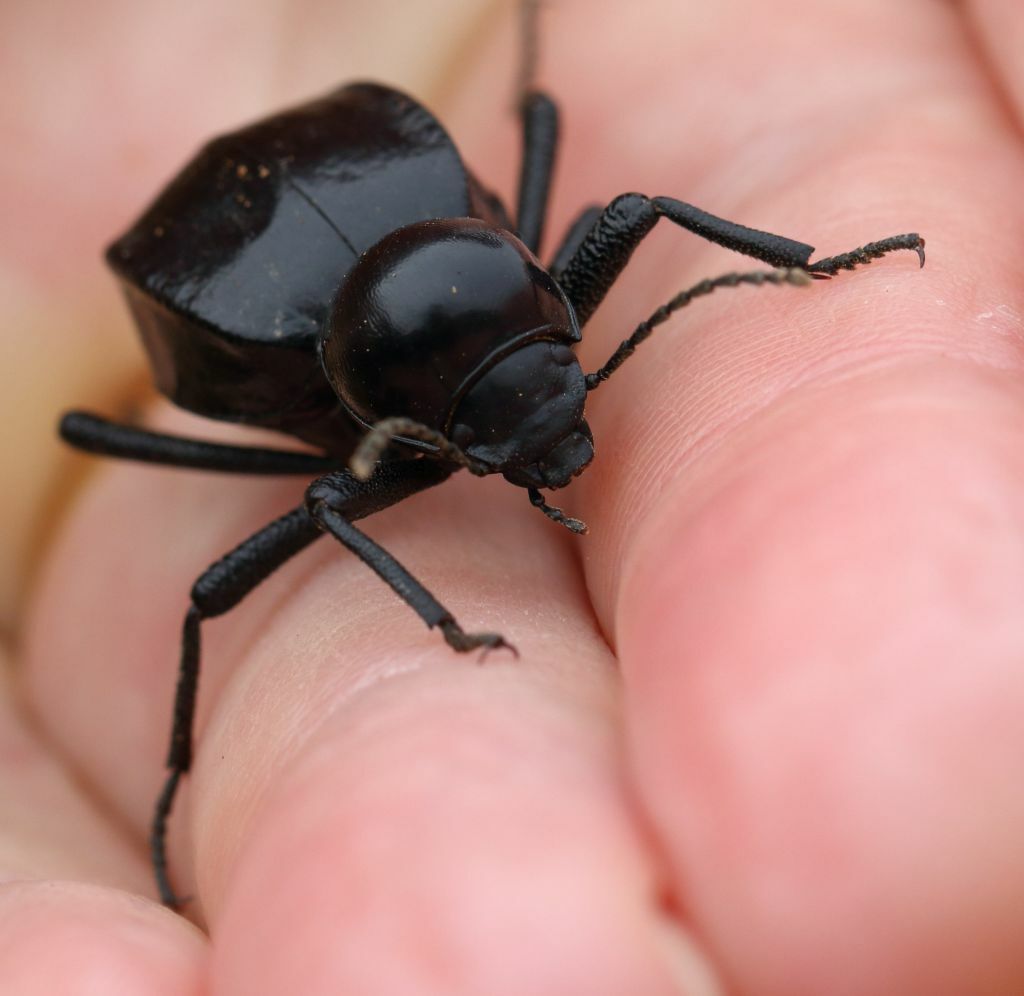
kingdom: Animalia
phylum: Arthropoda
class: Insecta
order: Coleoptera
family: Tenebrionidae
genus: Moluris
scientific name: Moluris gibba
